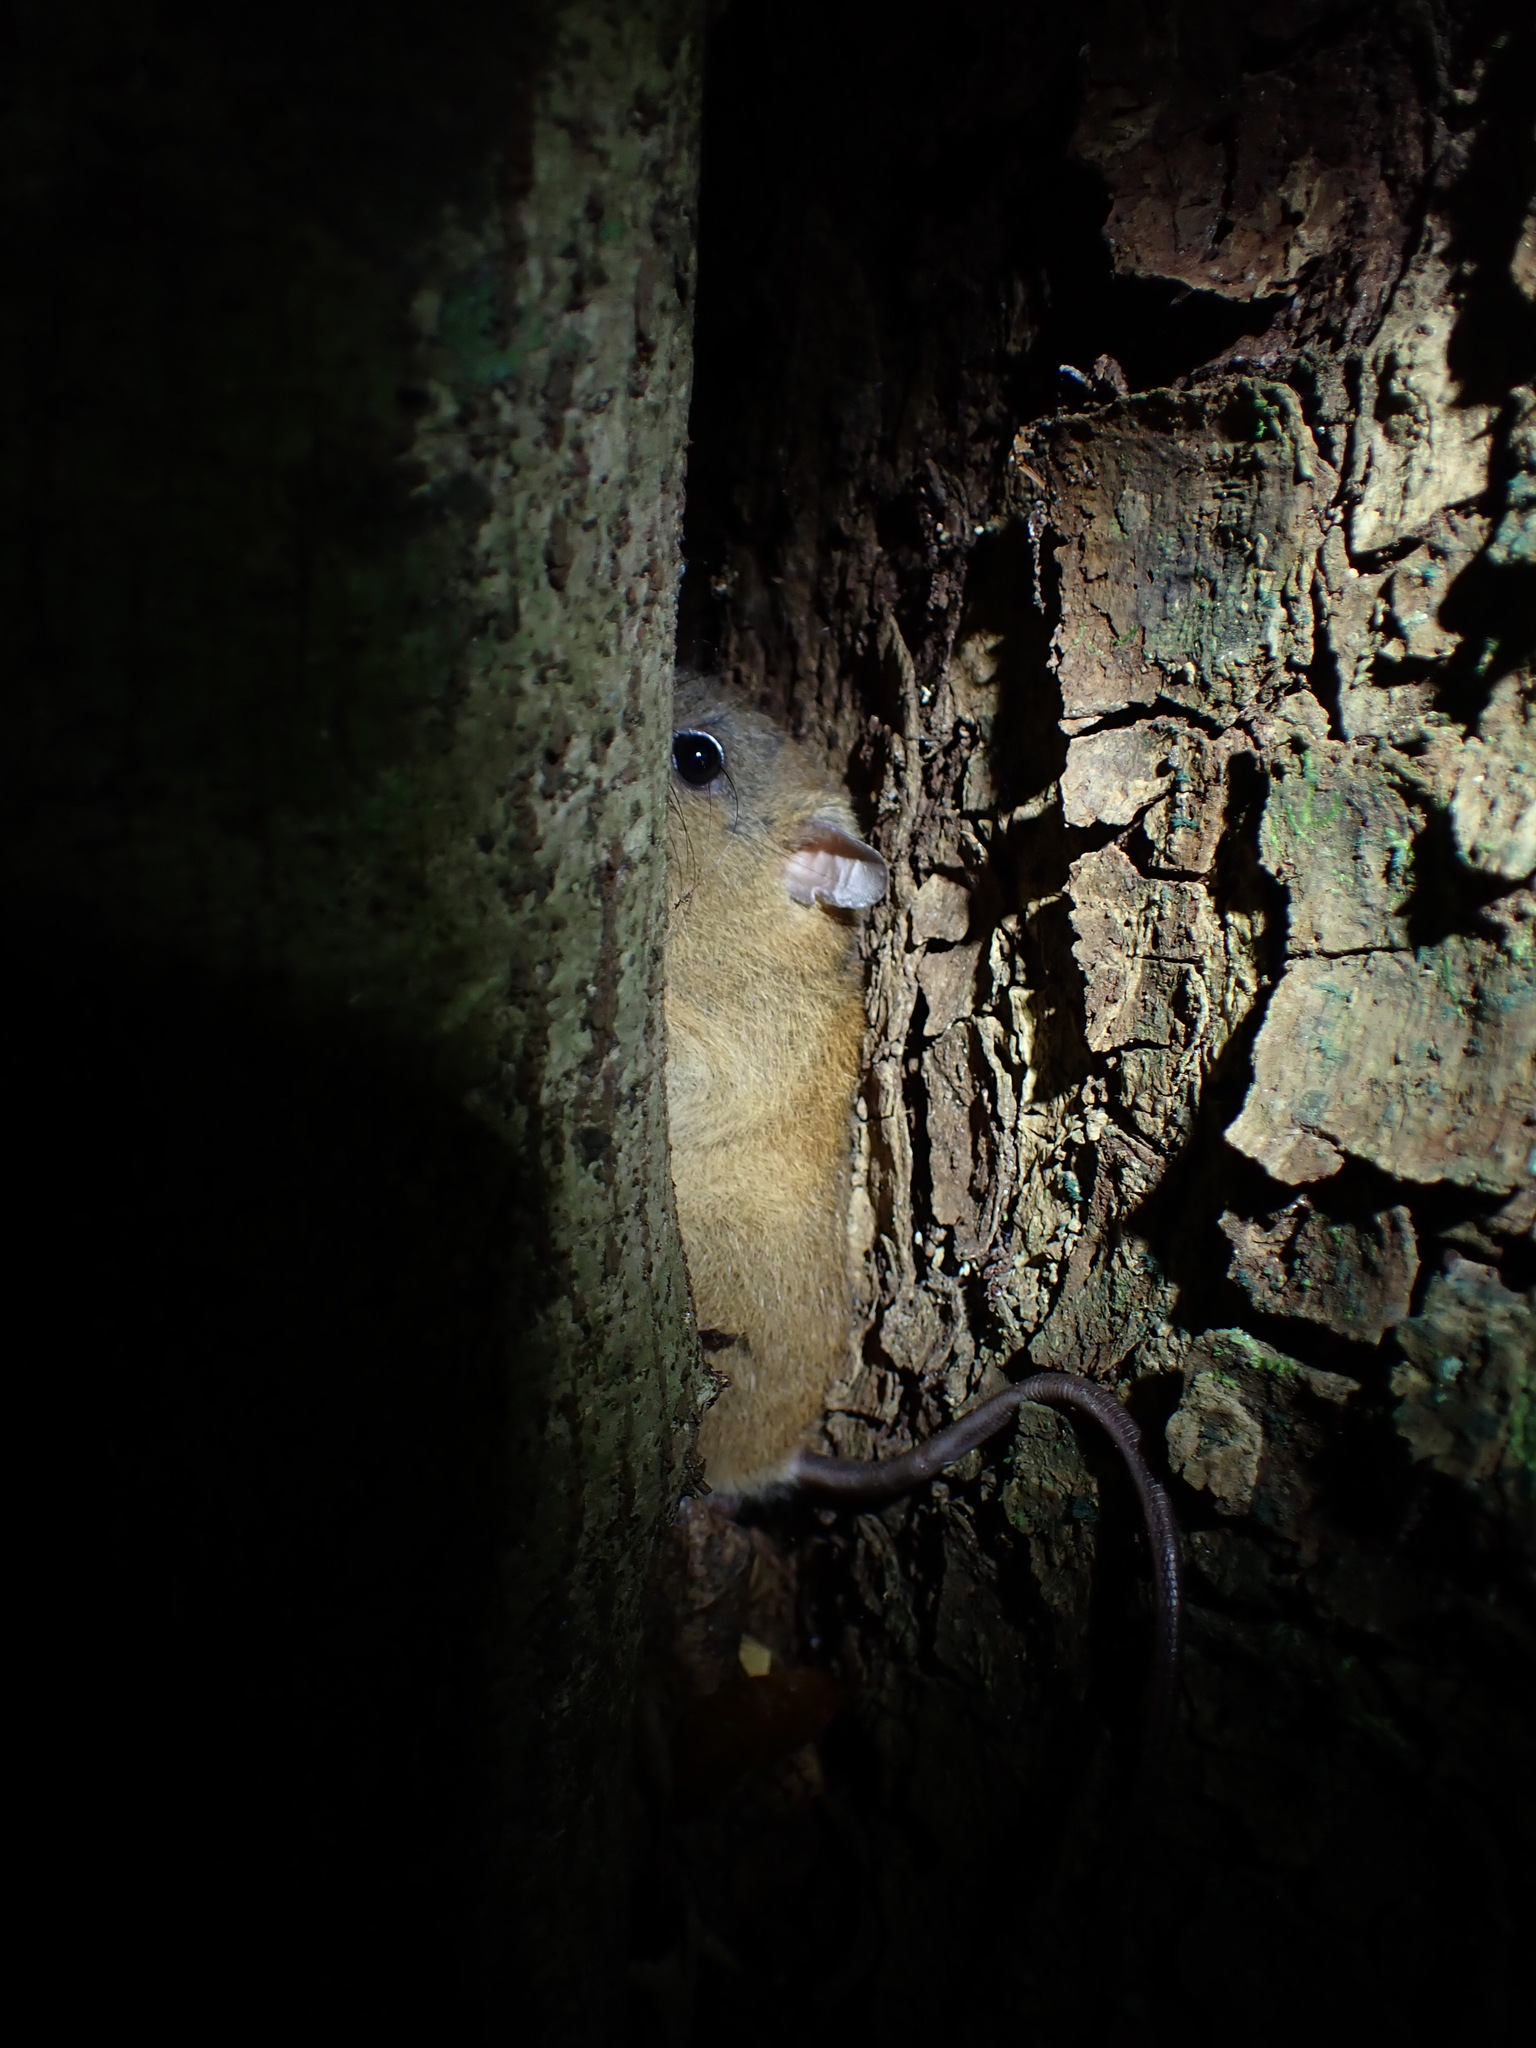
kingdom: Animalia
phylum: Chordata
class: Mammalia
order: Rodentia
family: Muridae
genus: Melomys
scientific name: Melomys cervinipes
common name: Fawn-footed melomys
